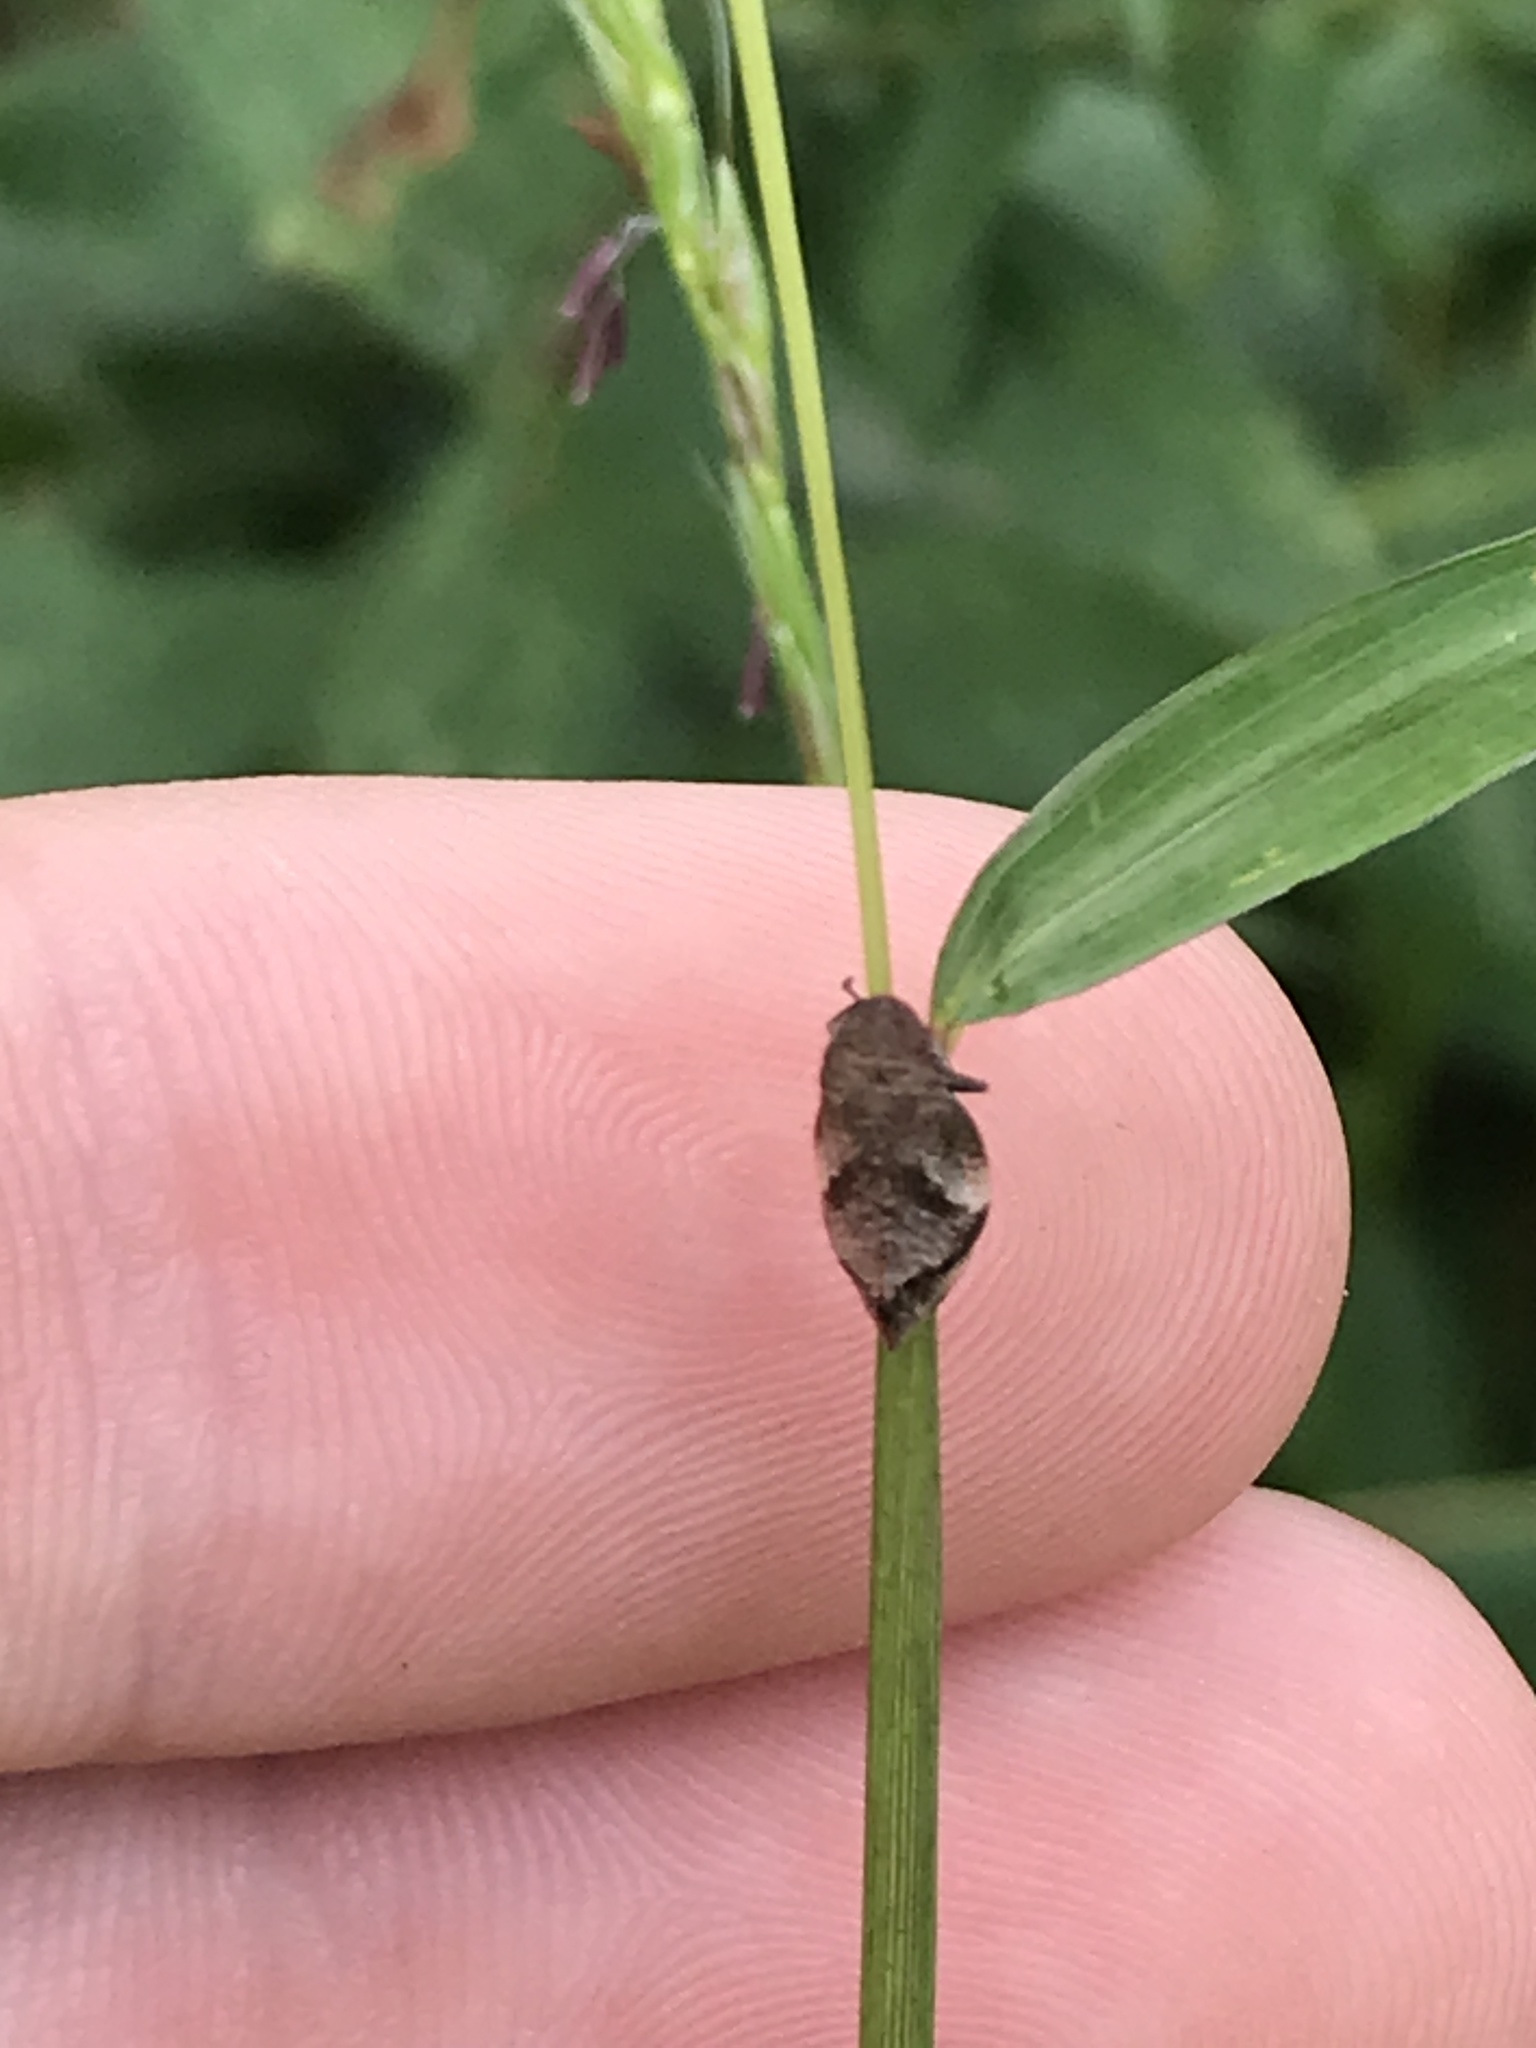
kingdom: Animalia
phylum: Arthropoda
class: Insecta
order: Hemiptera
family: Aphrophoridae
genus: Lepyronia
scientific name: Lepyronia quadrangularis
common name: Diamond-backed spittlebug
